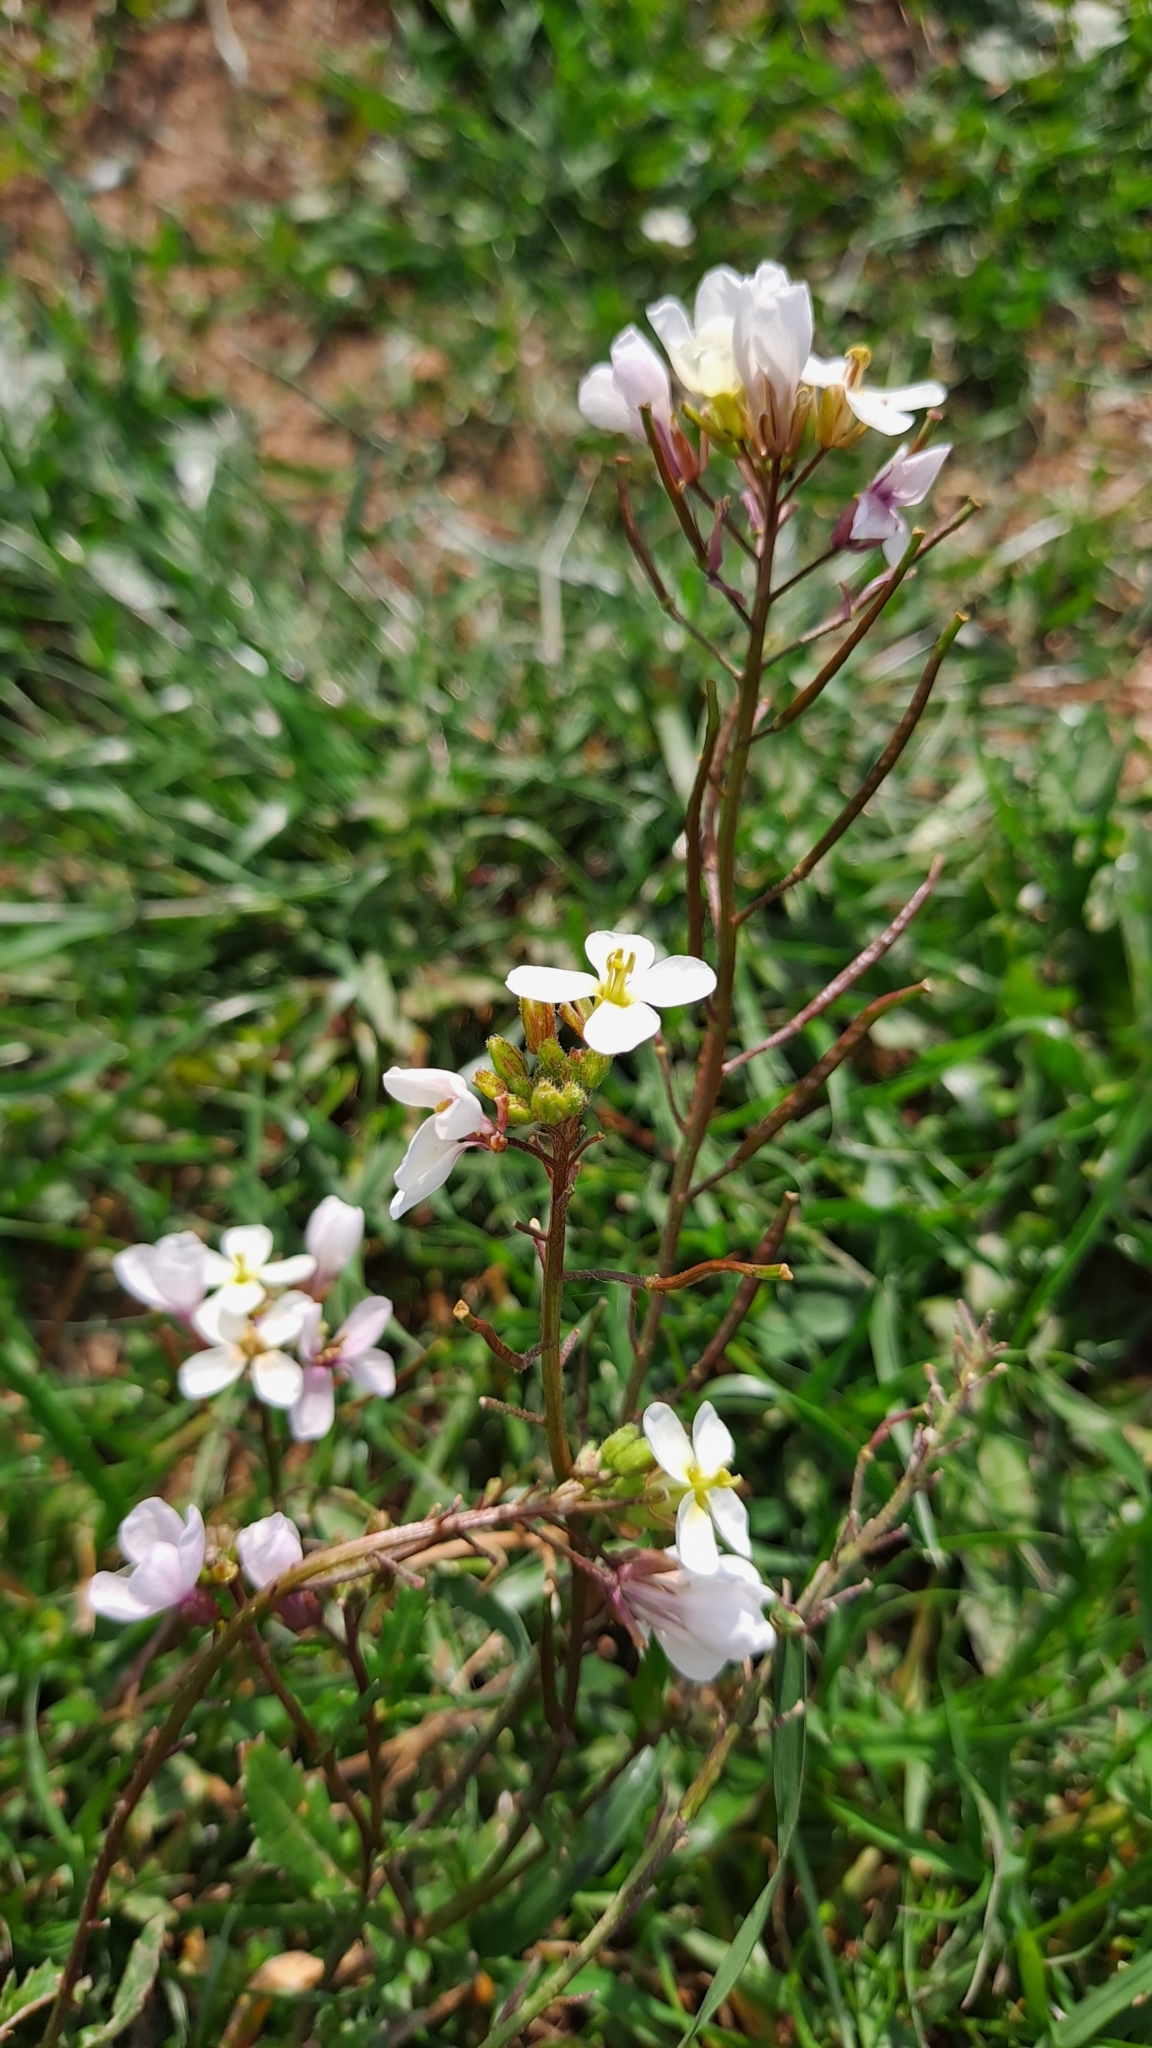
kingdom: Plantae
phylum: Tracheophyta
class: Magnoliopsida
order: Brassicales
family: Brassicaceae
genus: Diplotaxis
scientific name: Diplotaxis erucoides
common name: White rocket
